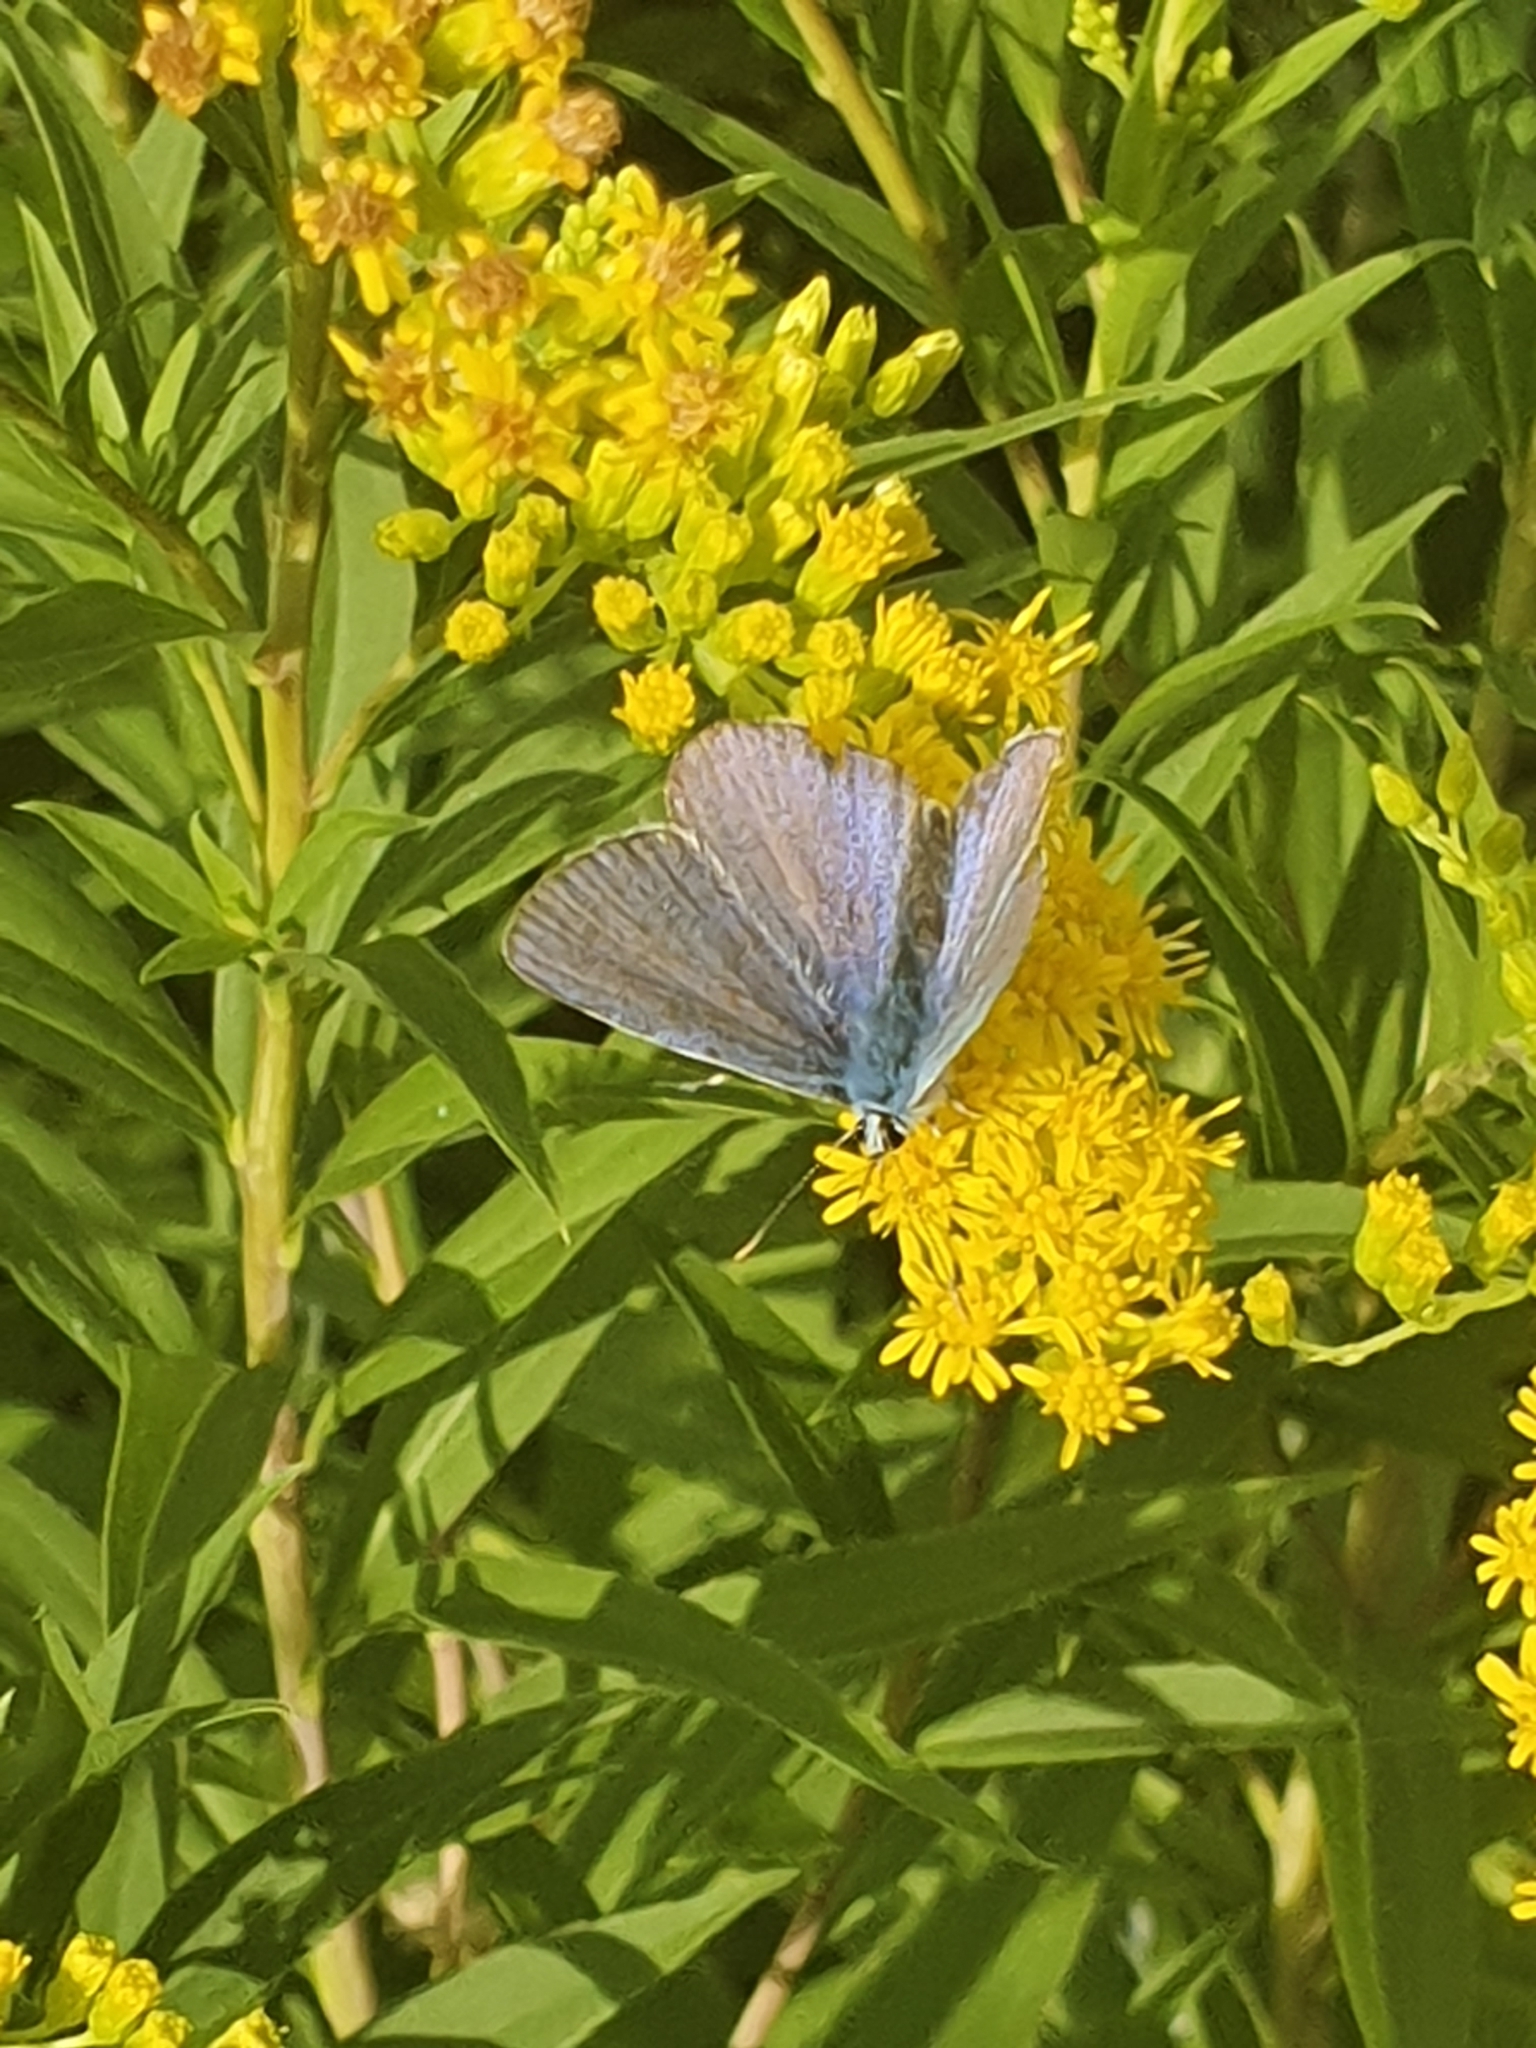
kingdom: Animalia
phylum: Arthropoda
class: Insecta
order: Lepidoptera
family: Lycaenidae
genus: Polyommatus
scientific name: Polyommatus icarus
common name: Common blue
